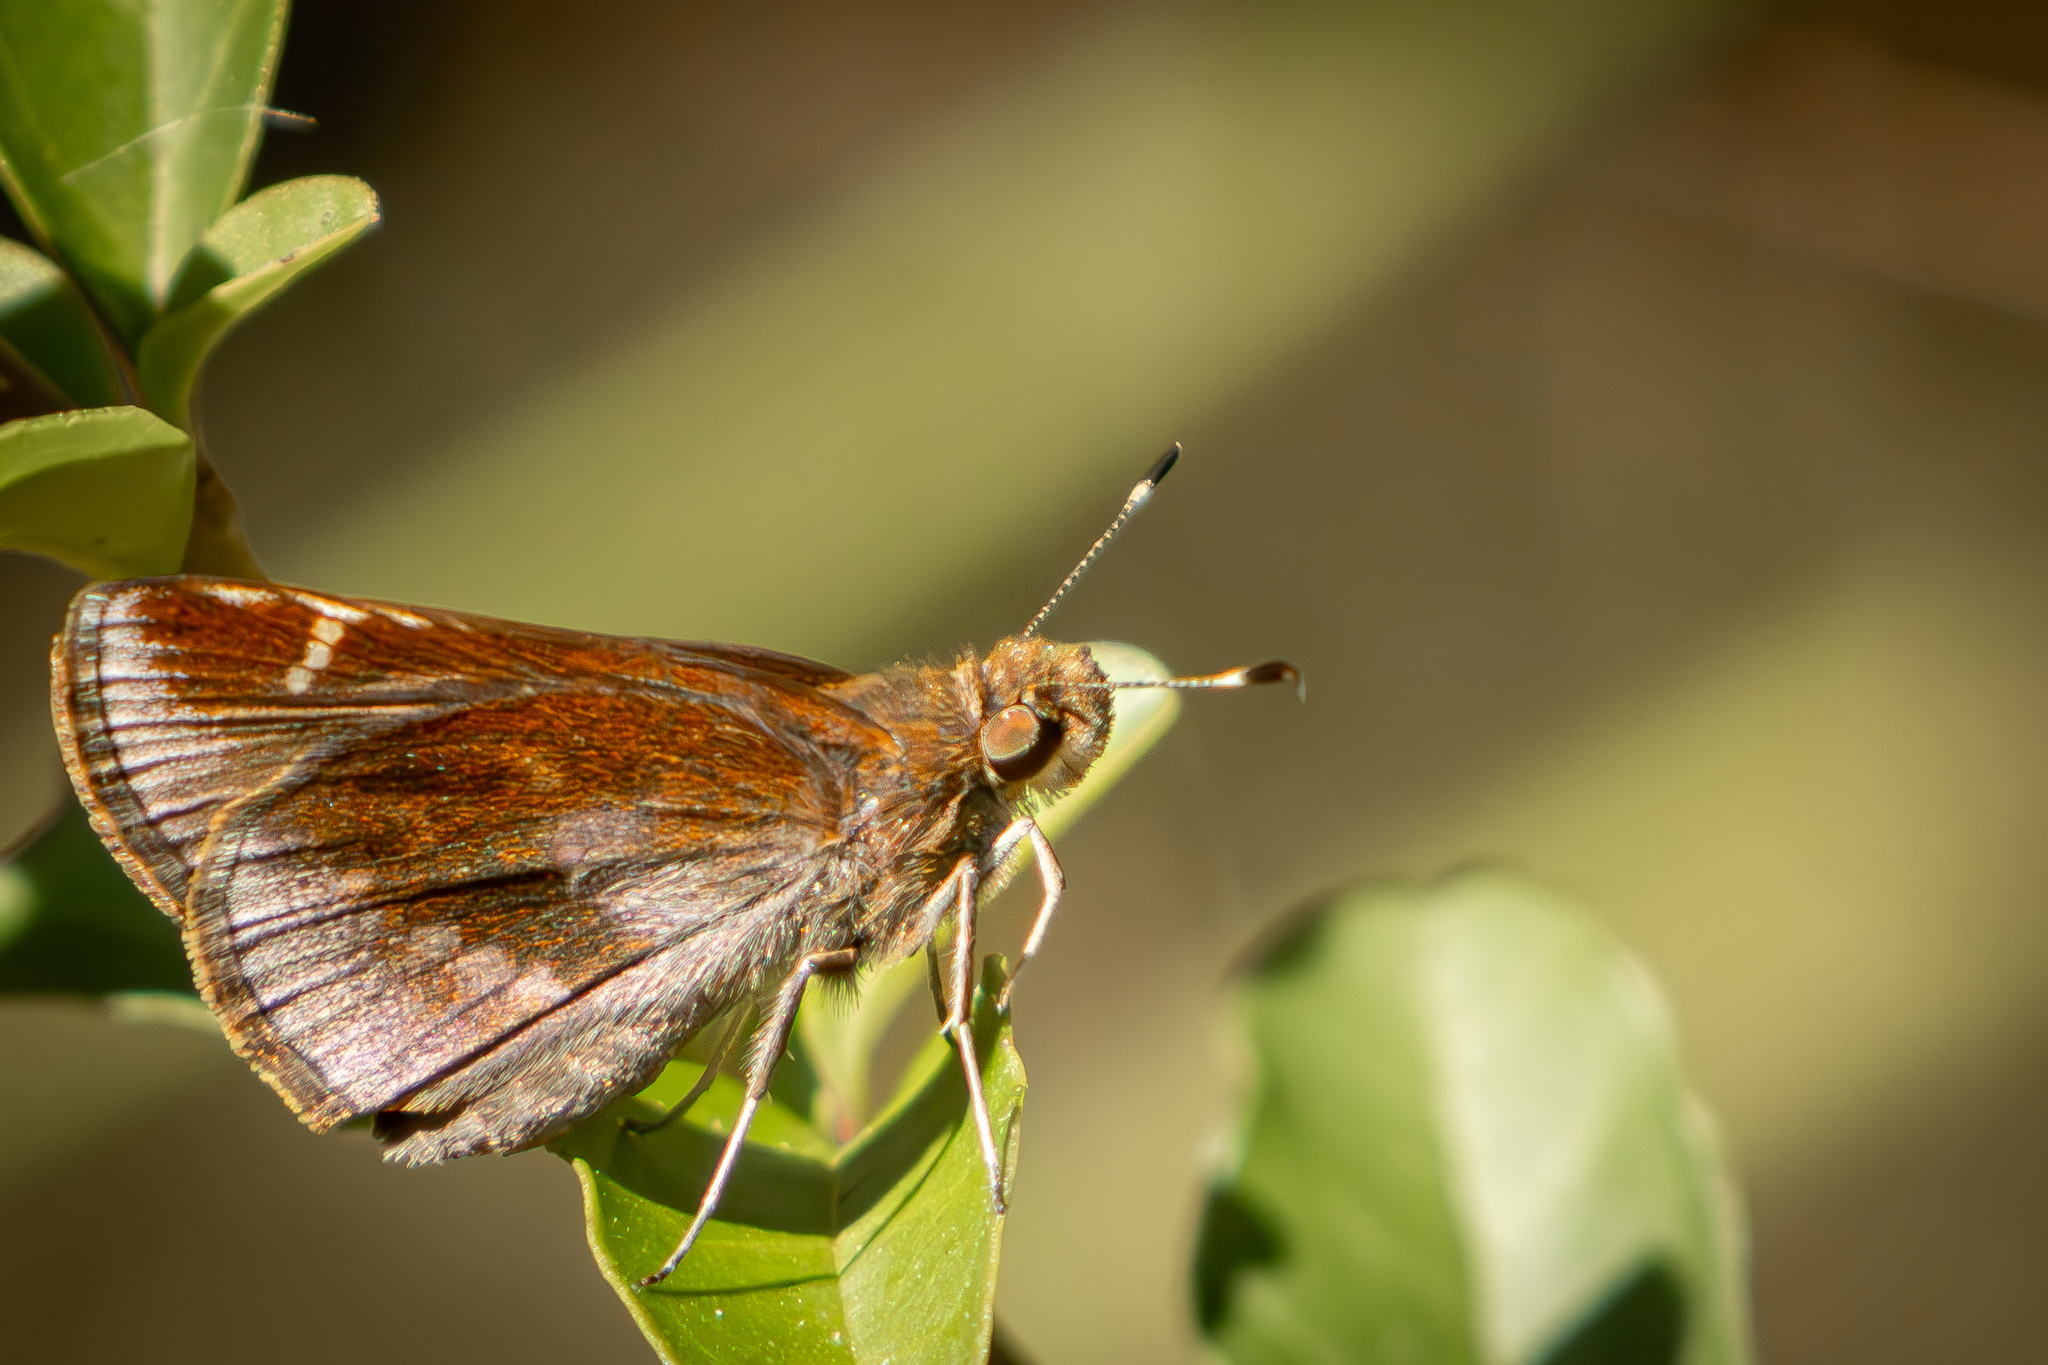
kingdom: Animalia
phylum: Arthropoda
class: Insecta
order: Lepidoptera
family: Hesperiidae
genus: Lerema
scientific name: Lerema accius
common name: Clouded skipper
